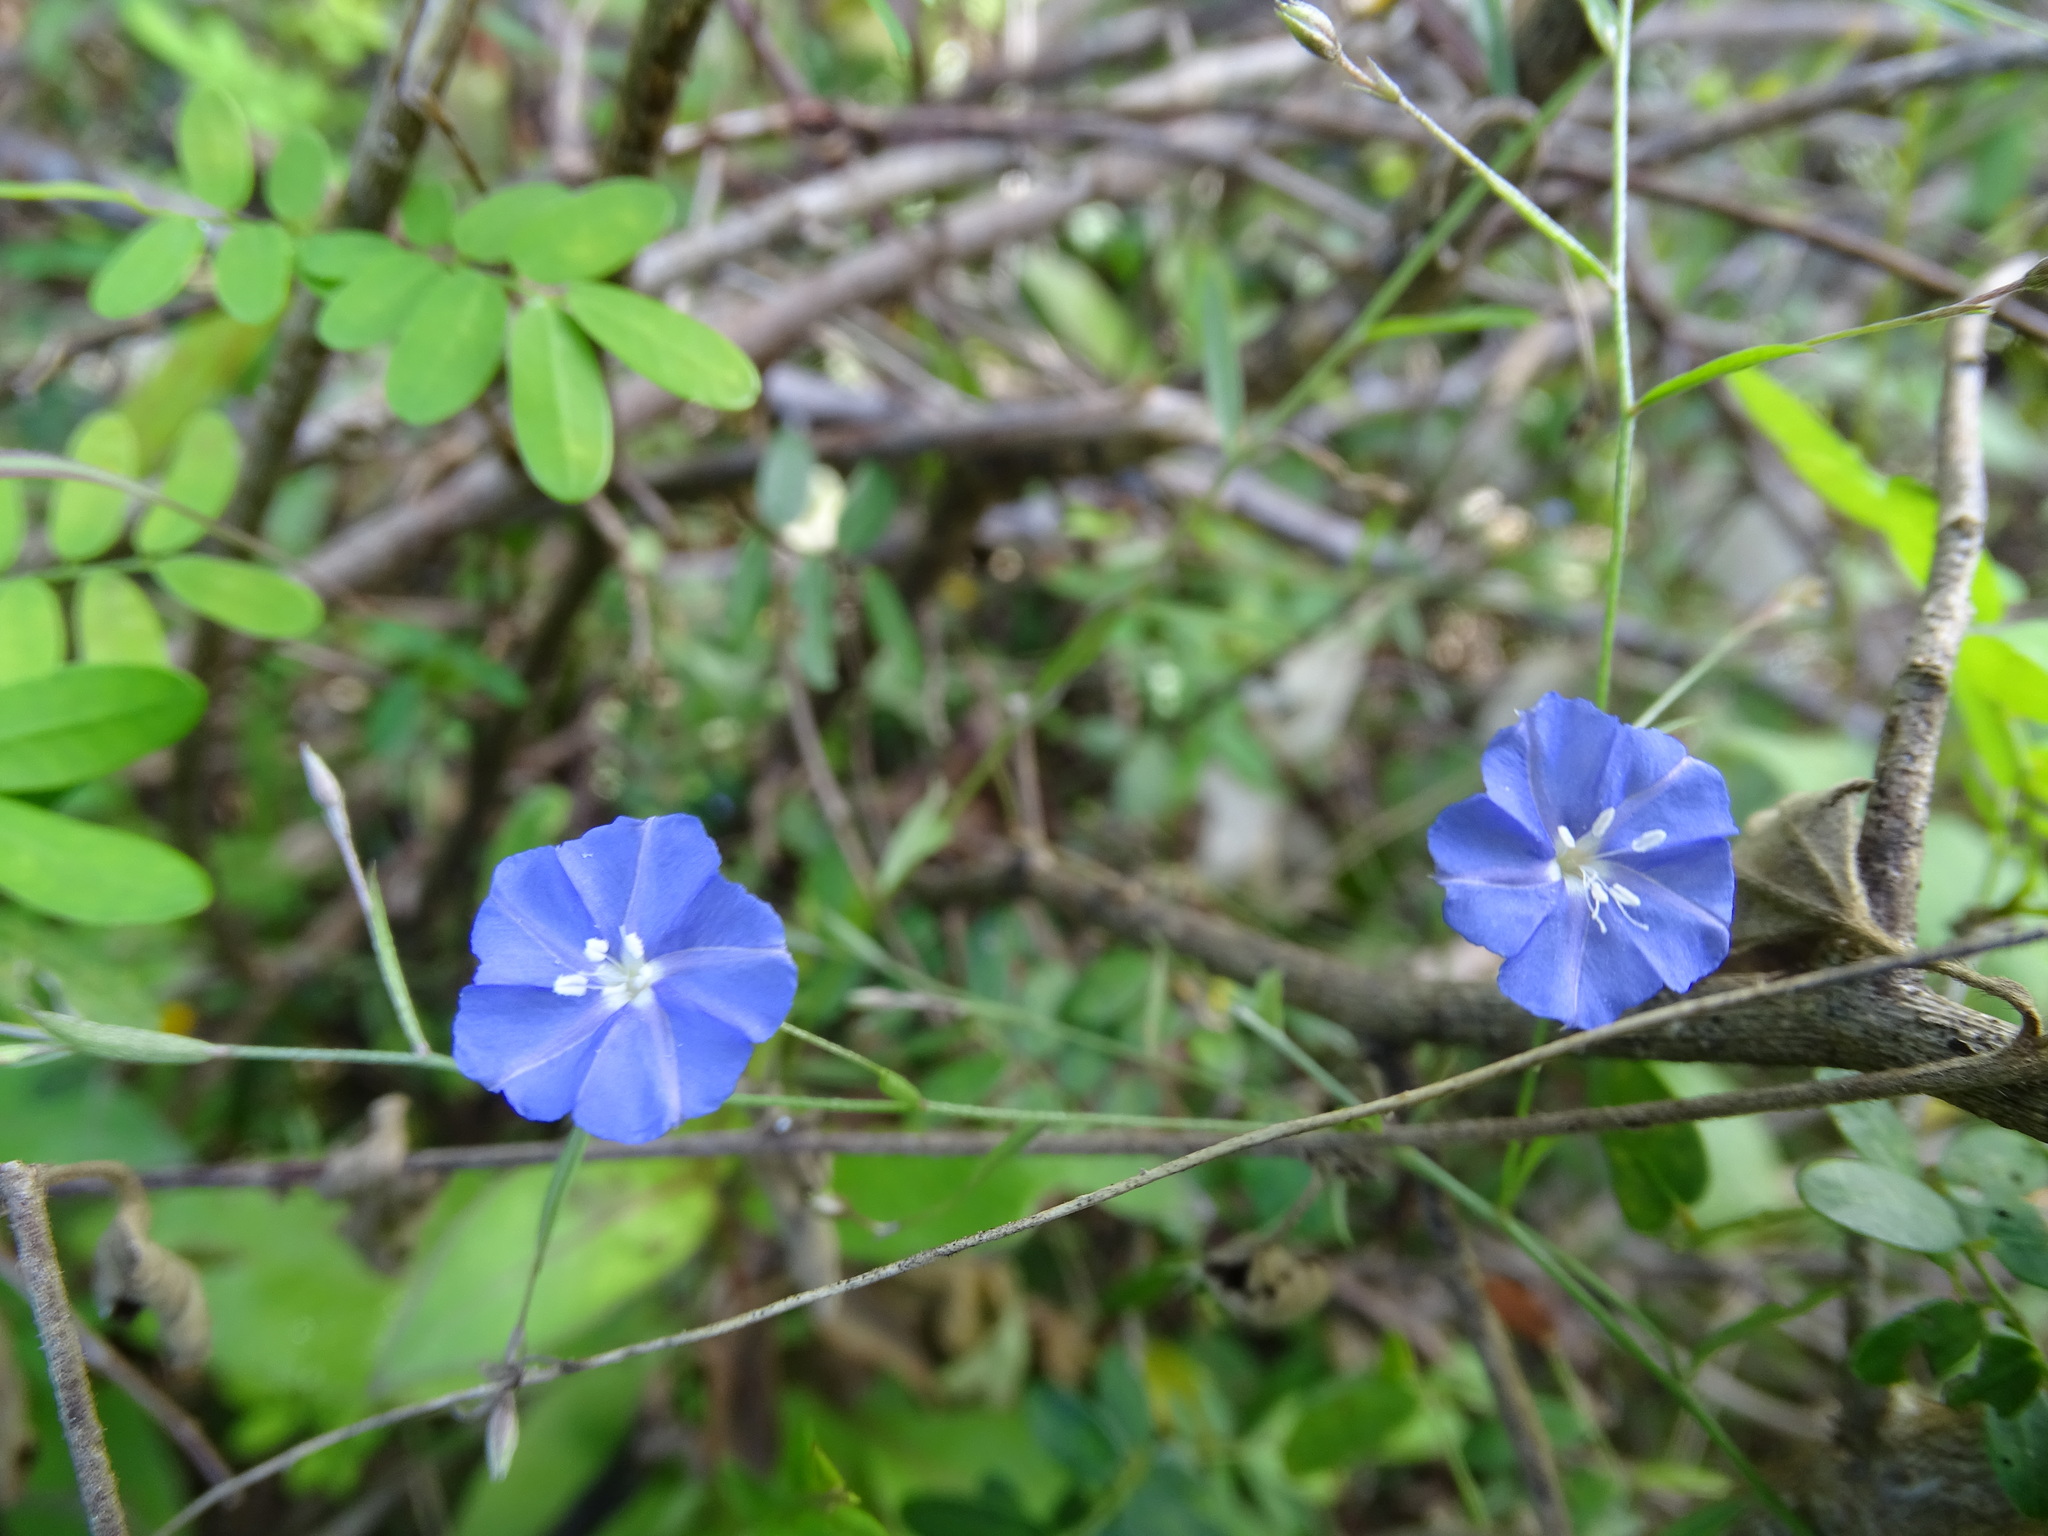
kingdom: Plantae
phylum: Tracheophyta
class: Magnoliopsida
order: Solanales
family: Convolvulaceae
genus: Evolvulus
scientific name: Evolvulus alsinoides
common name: Slender dwarf morning-glory
